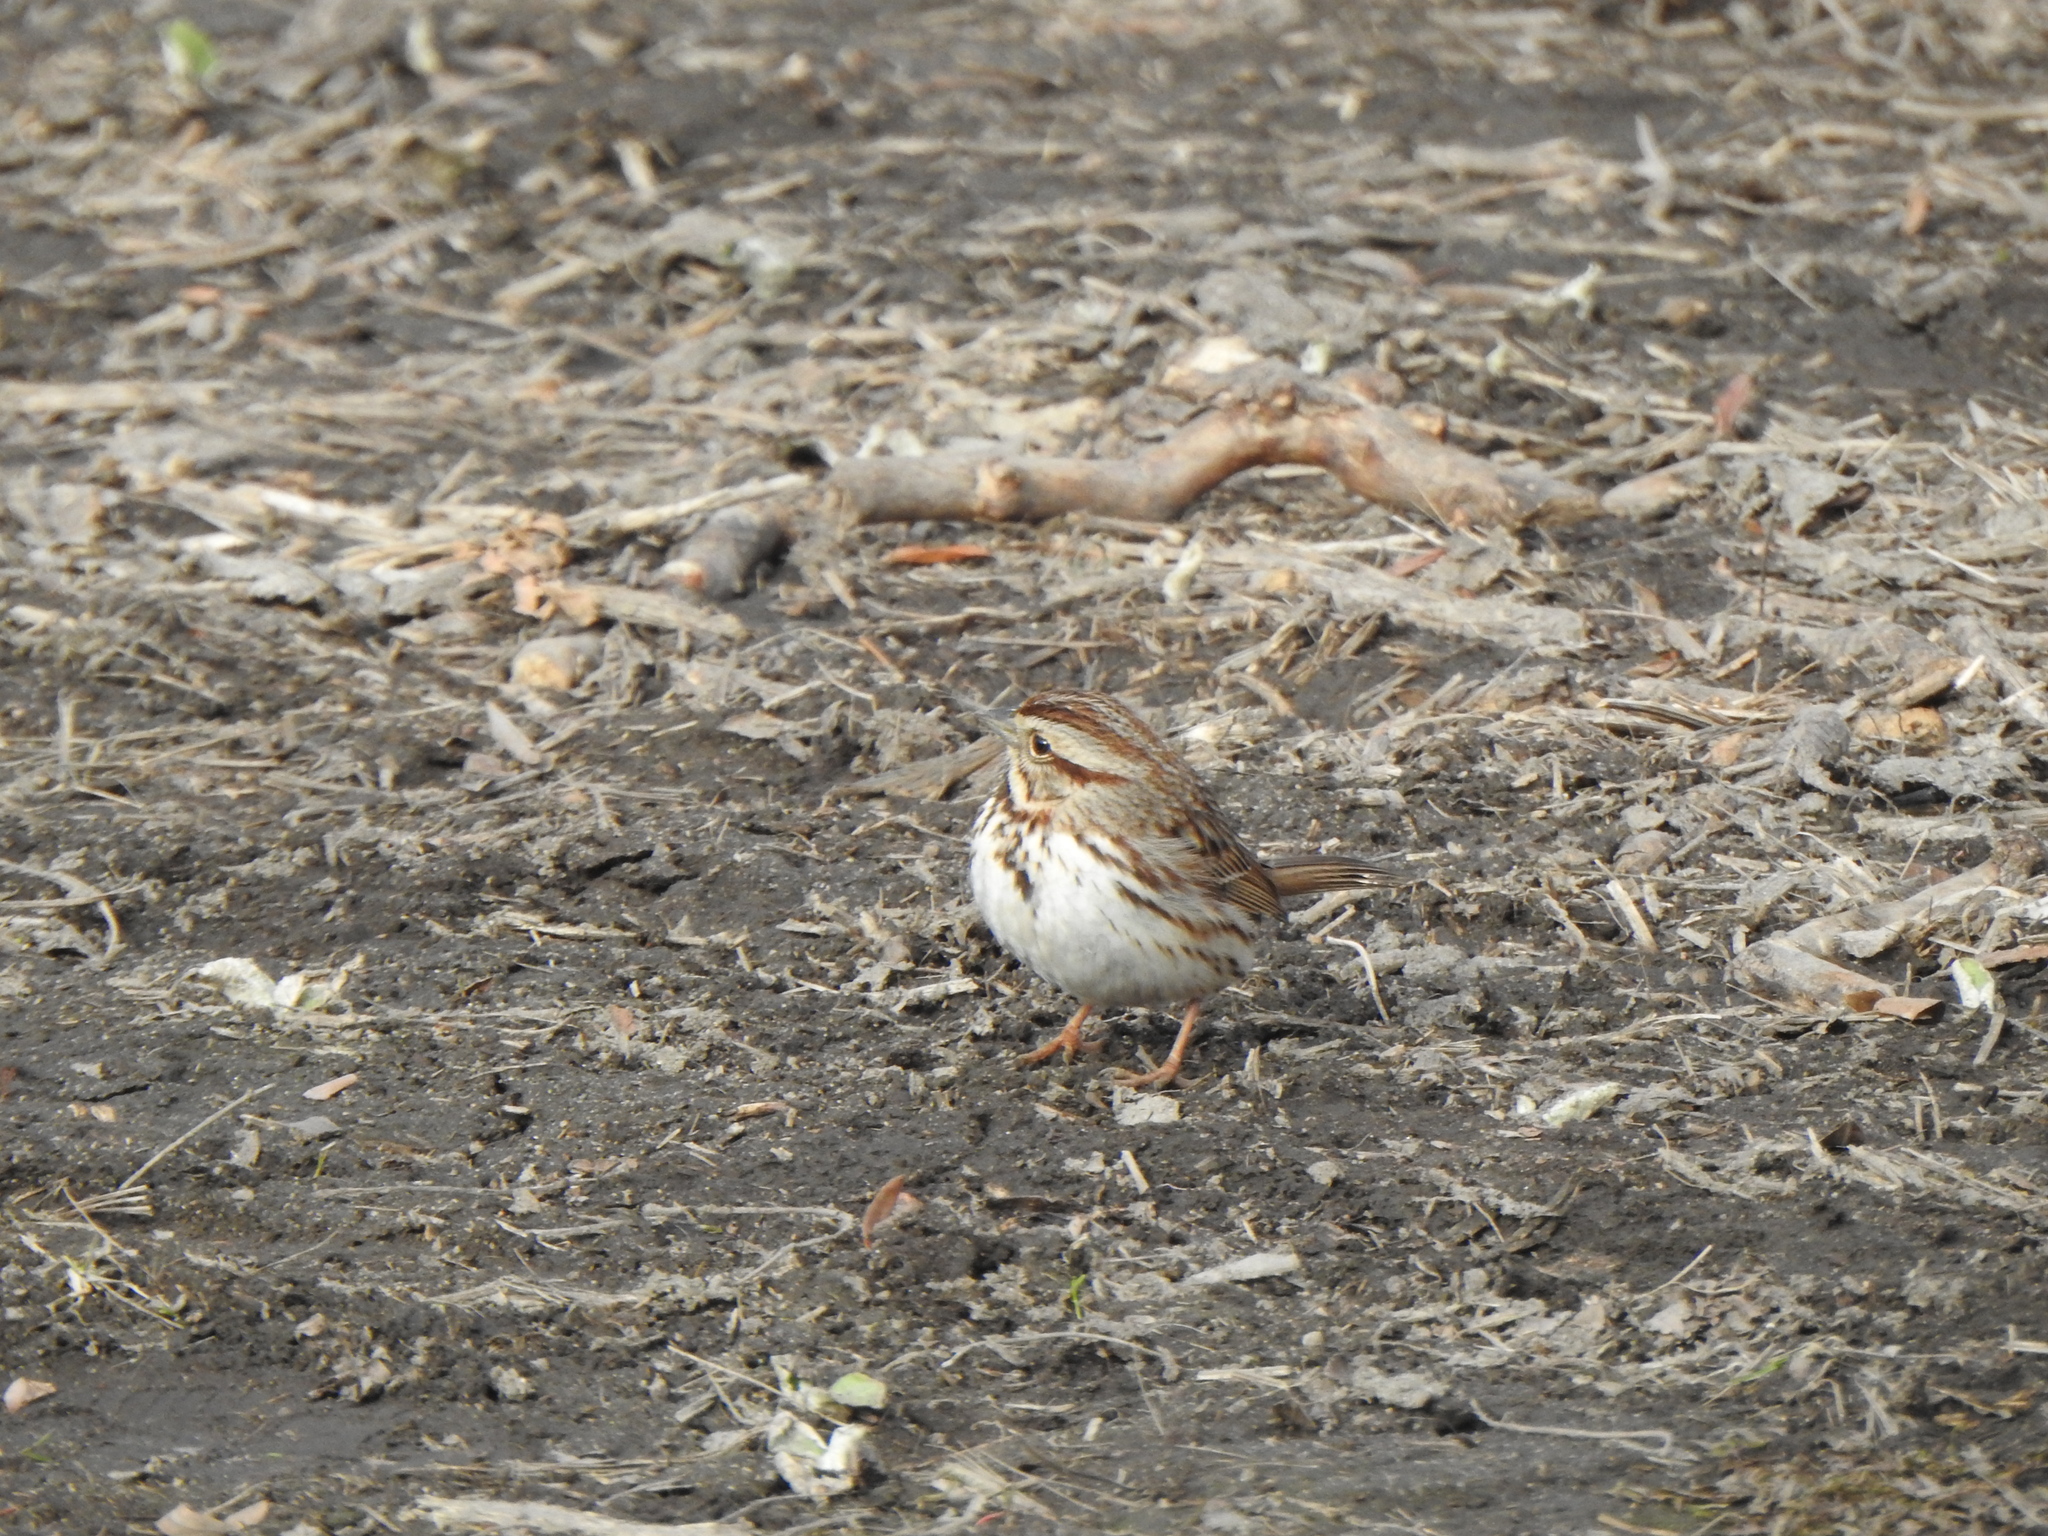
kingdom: Animalia
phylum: Chordata
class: Aves
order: Passeriformes
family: Passerellidae
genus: Melospiza
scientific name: Melospiza melodia
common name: Song sparrow
